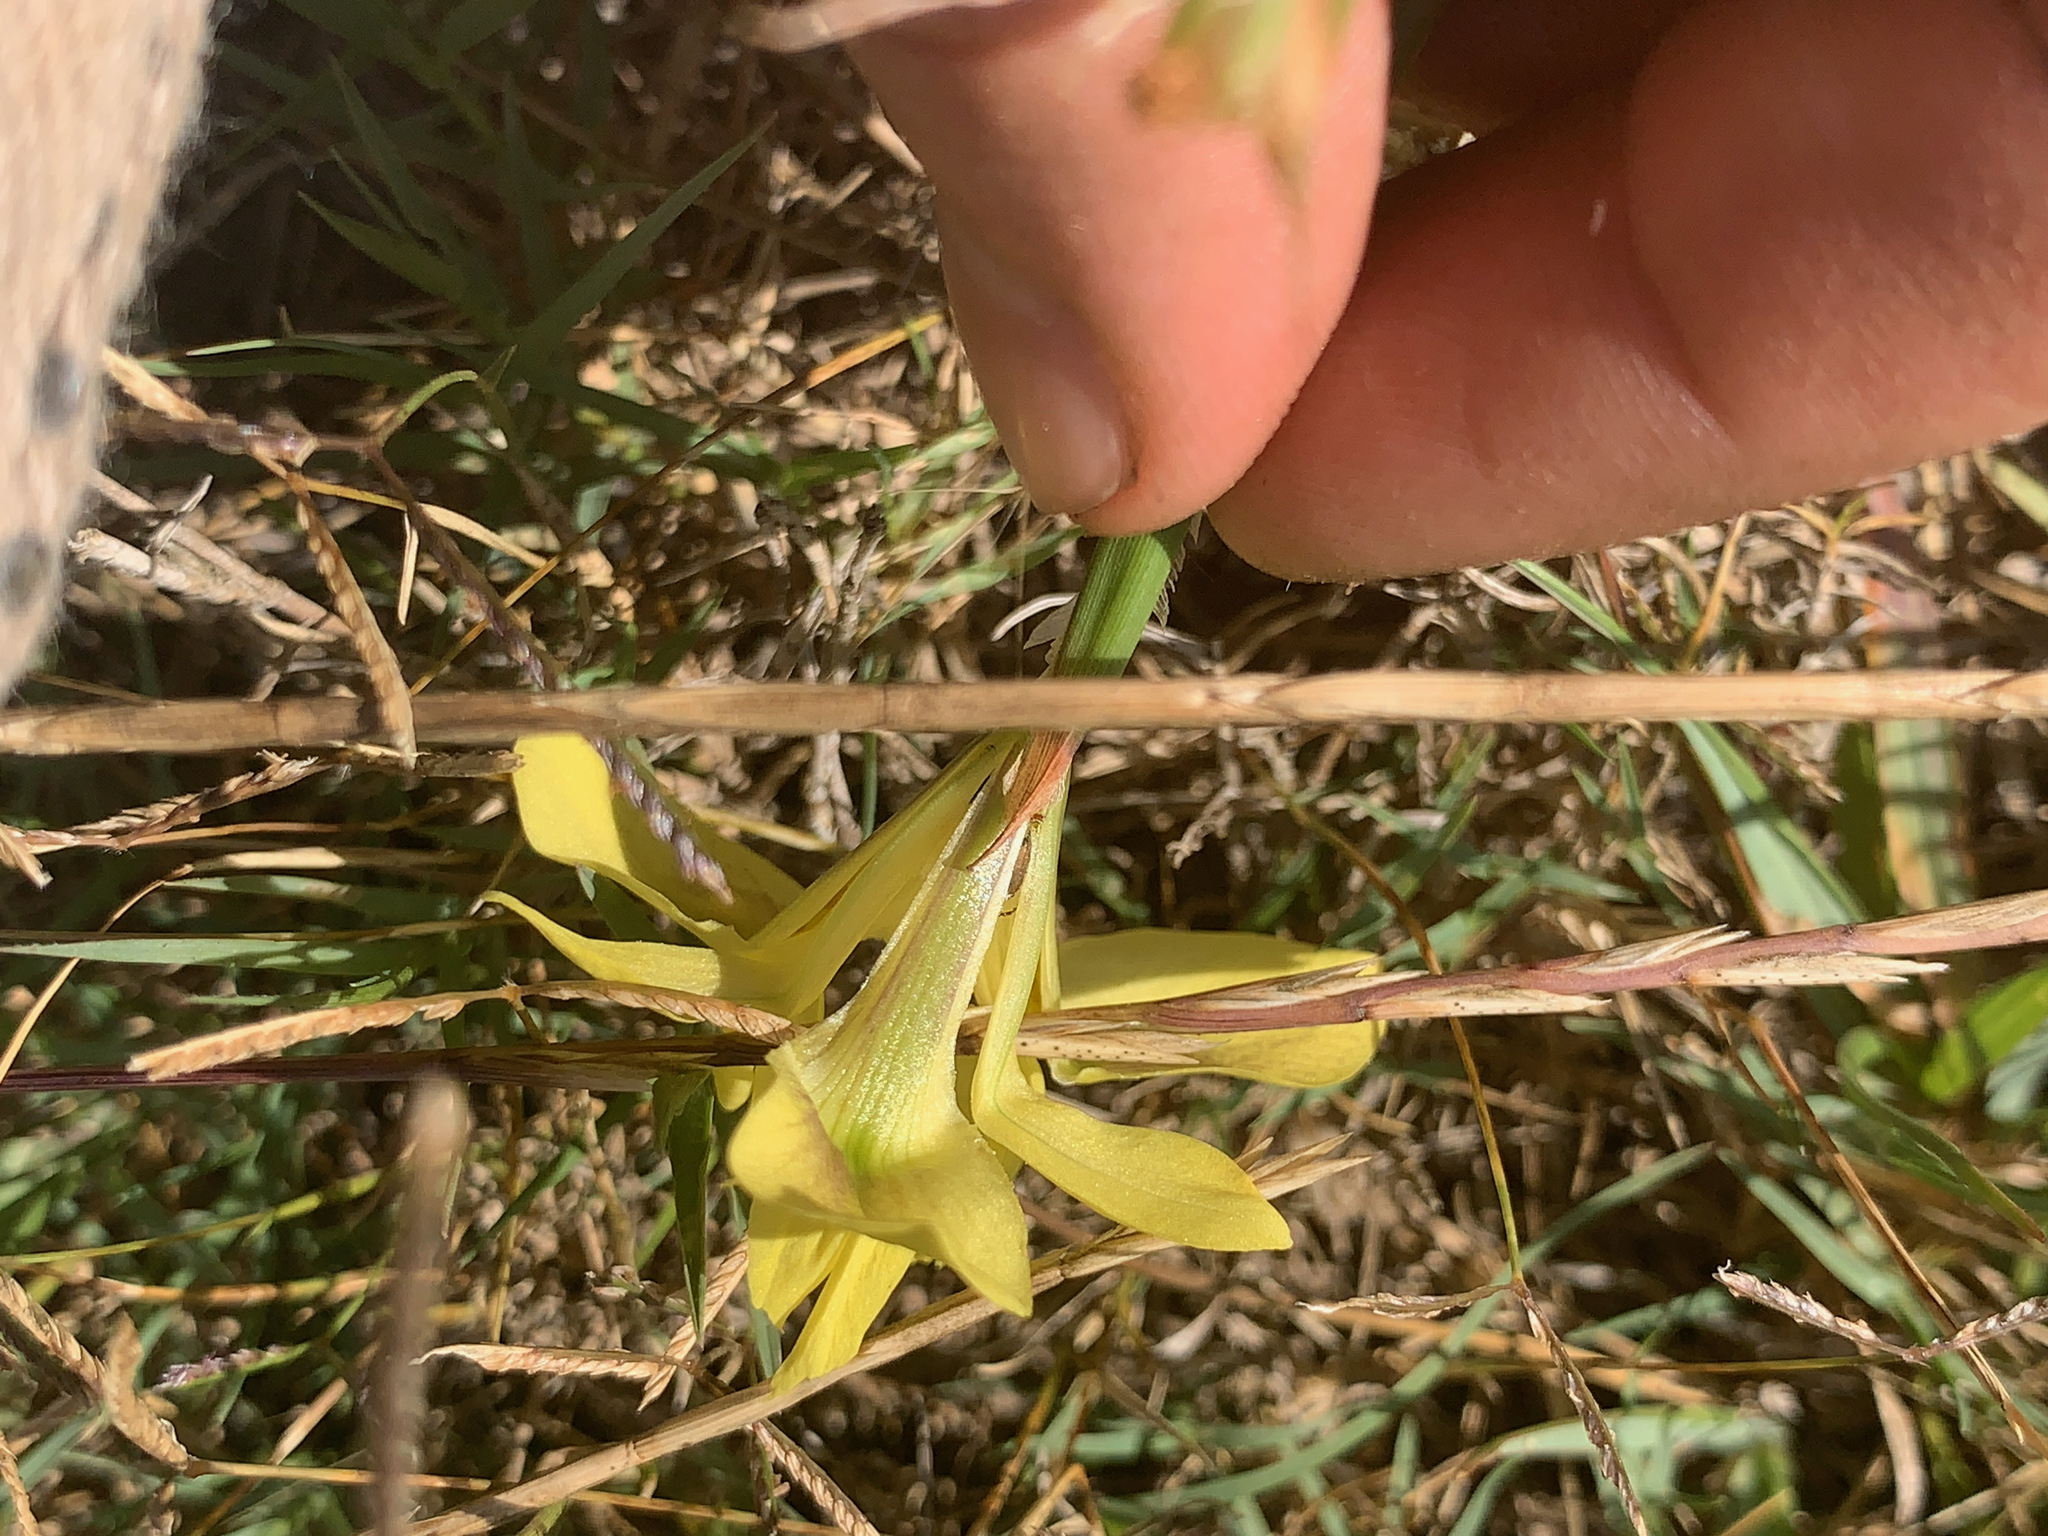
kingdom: Plantae
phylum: Tracheophyta
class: Liliopsida
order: Asparagales
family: Iridaceae
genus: Moraea
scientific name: Moraea fugax
